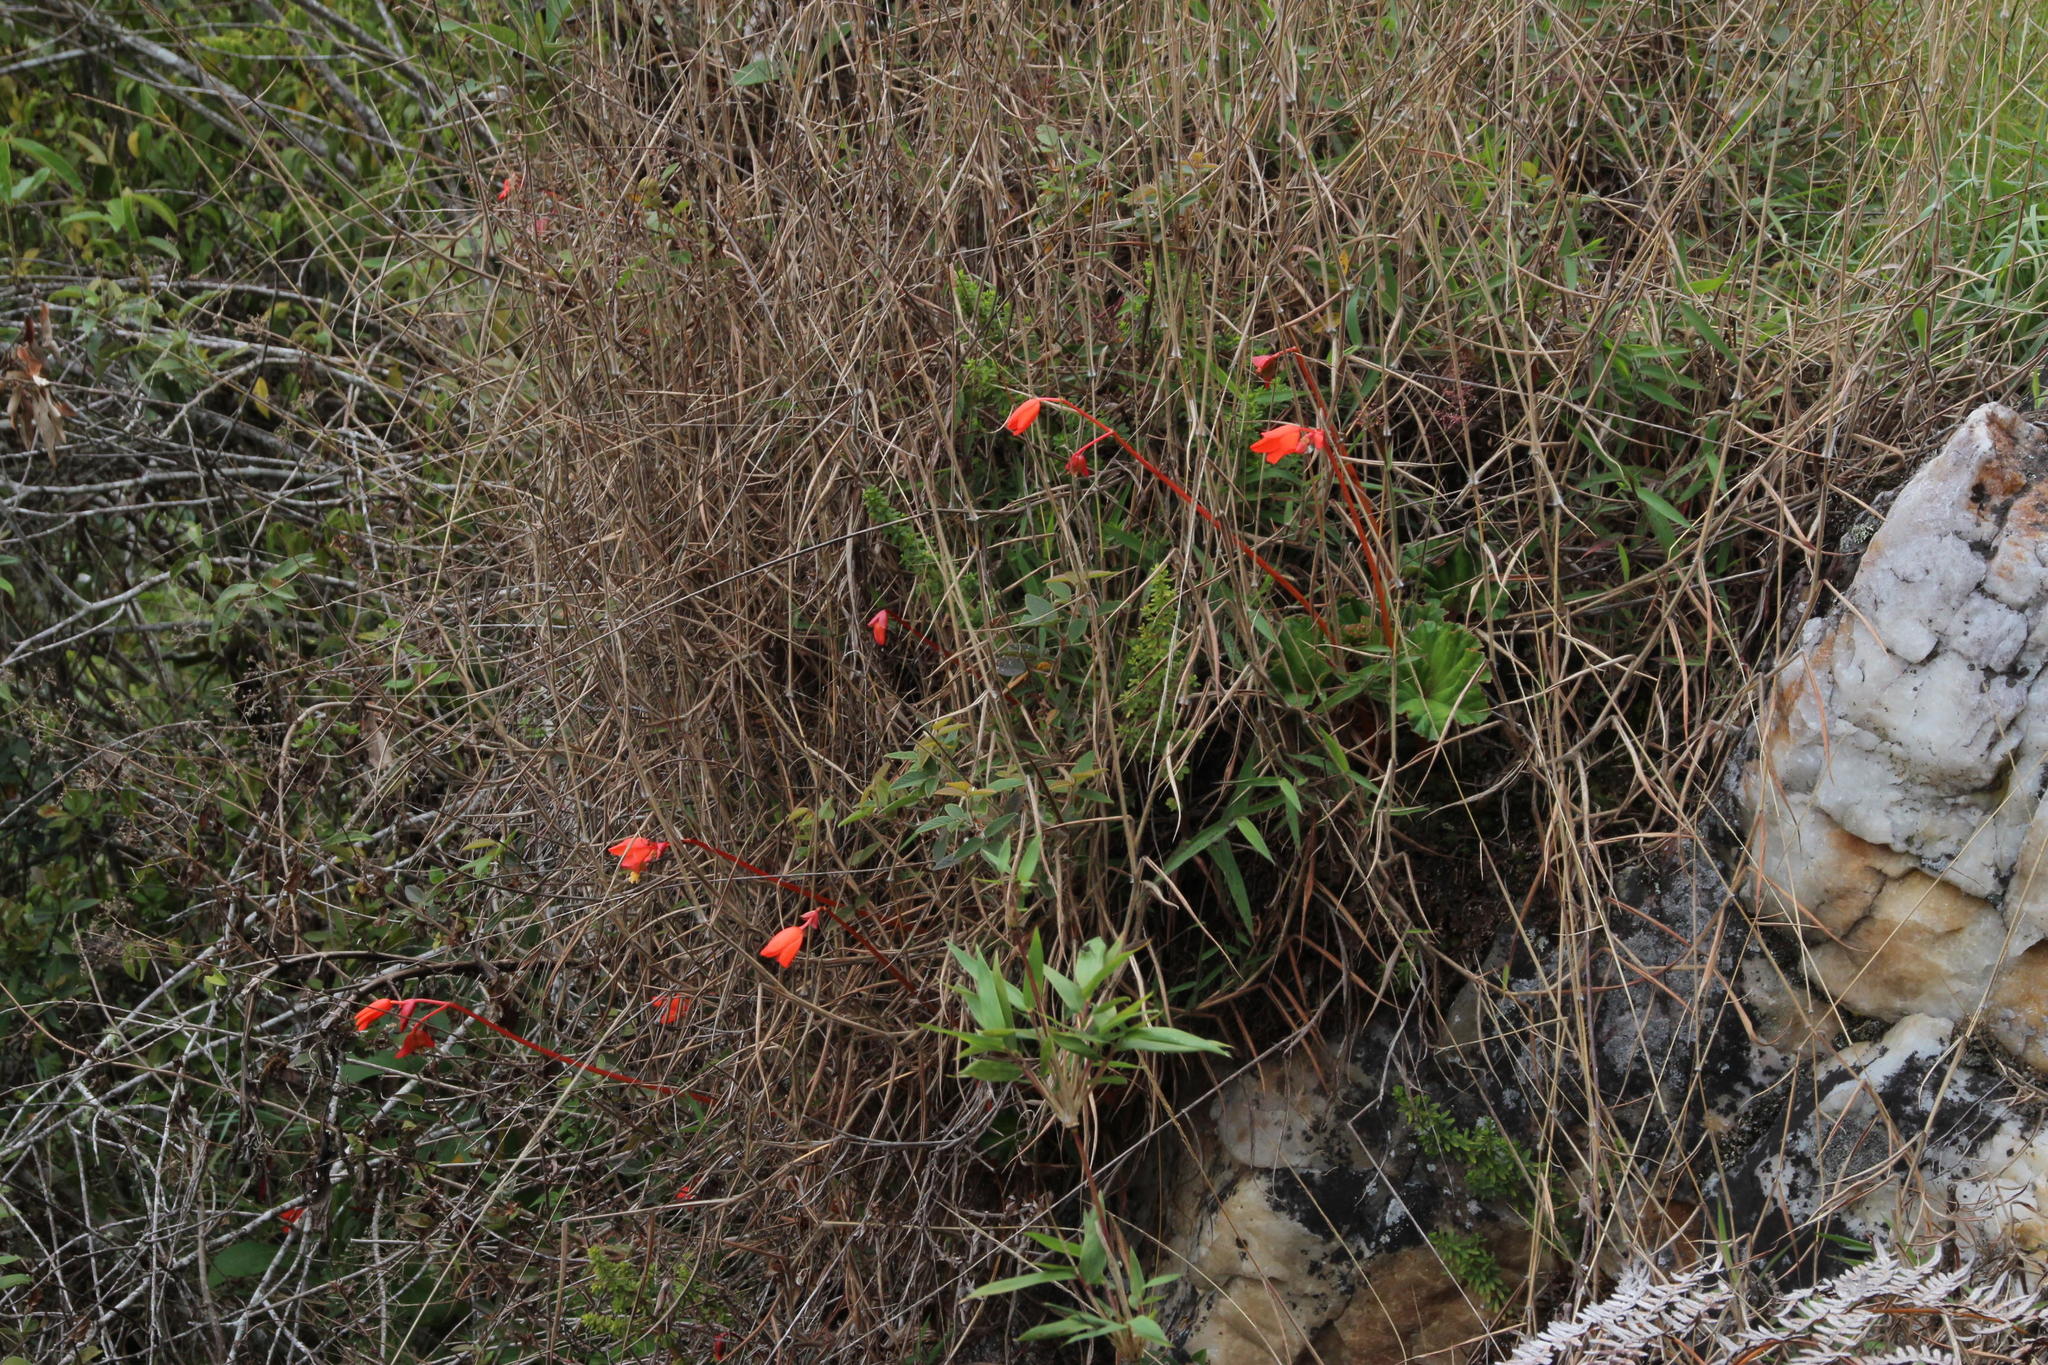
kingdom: Plantae
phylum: Tracheophyta
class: Magnoliopsida
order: Cucurbitales
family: Begoniaceae
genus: Begonia
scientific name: Begonia veitchii
